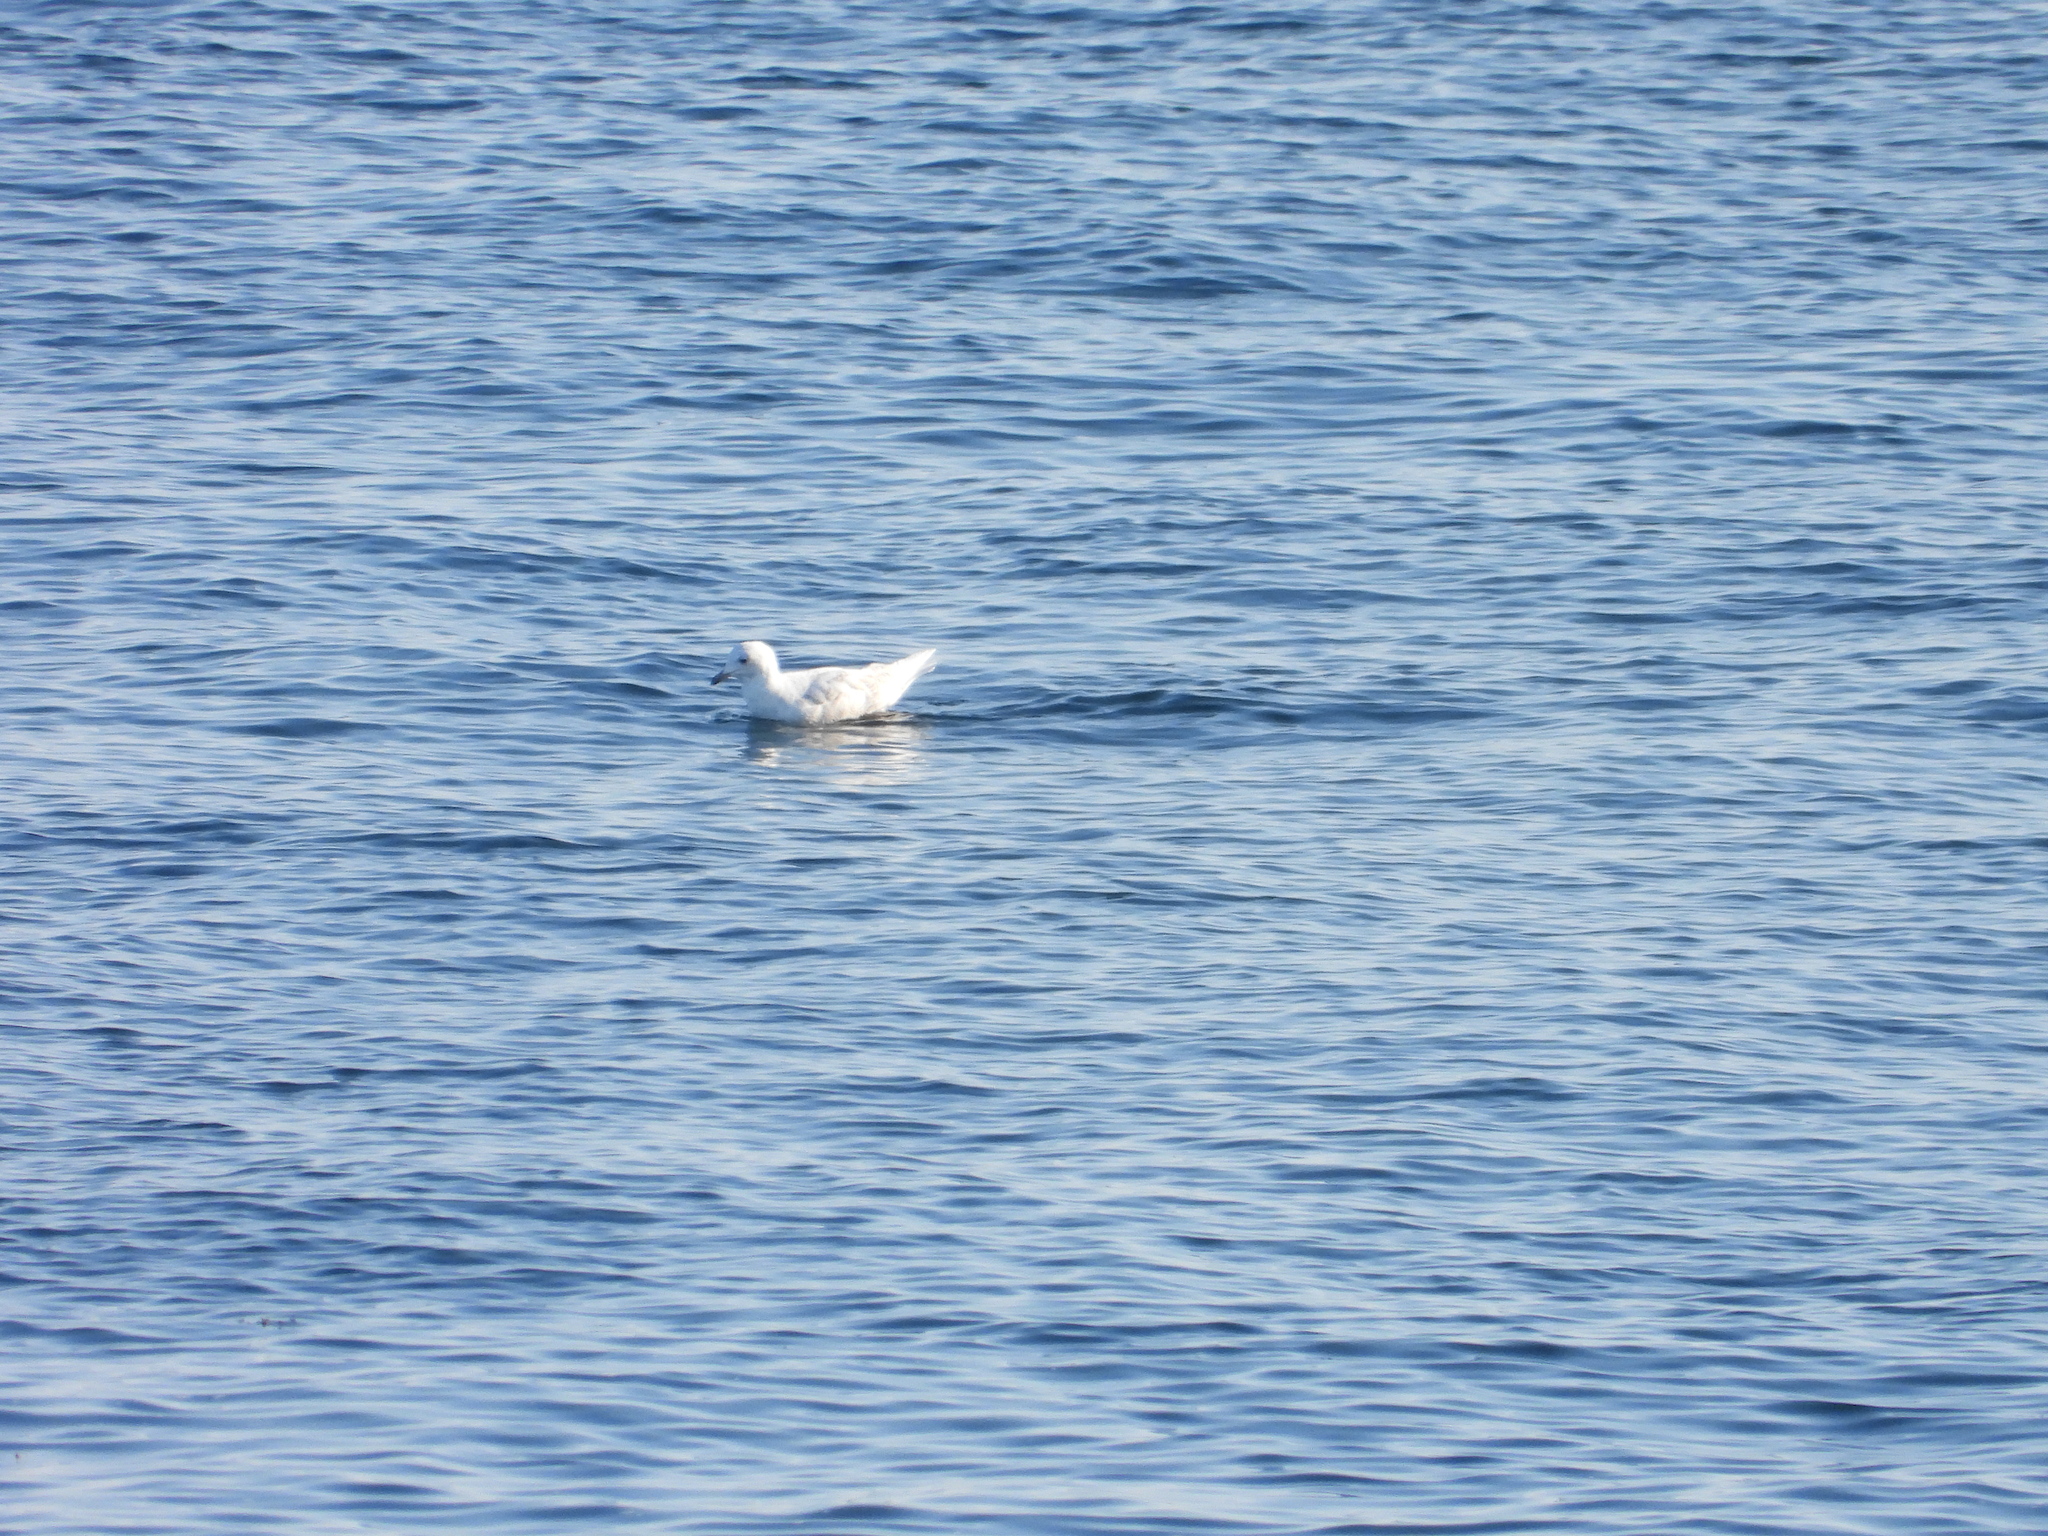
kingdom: Animalia
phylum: Chordata
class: Aves
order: Charadriiformes
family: Laridae
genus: Larus
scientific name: Larus glaucoides
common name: Iceland gull
